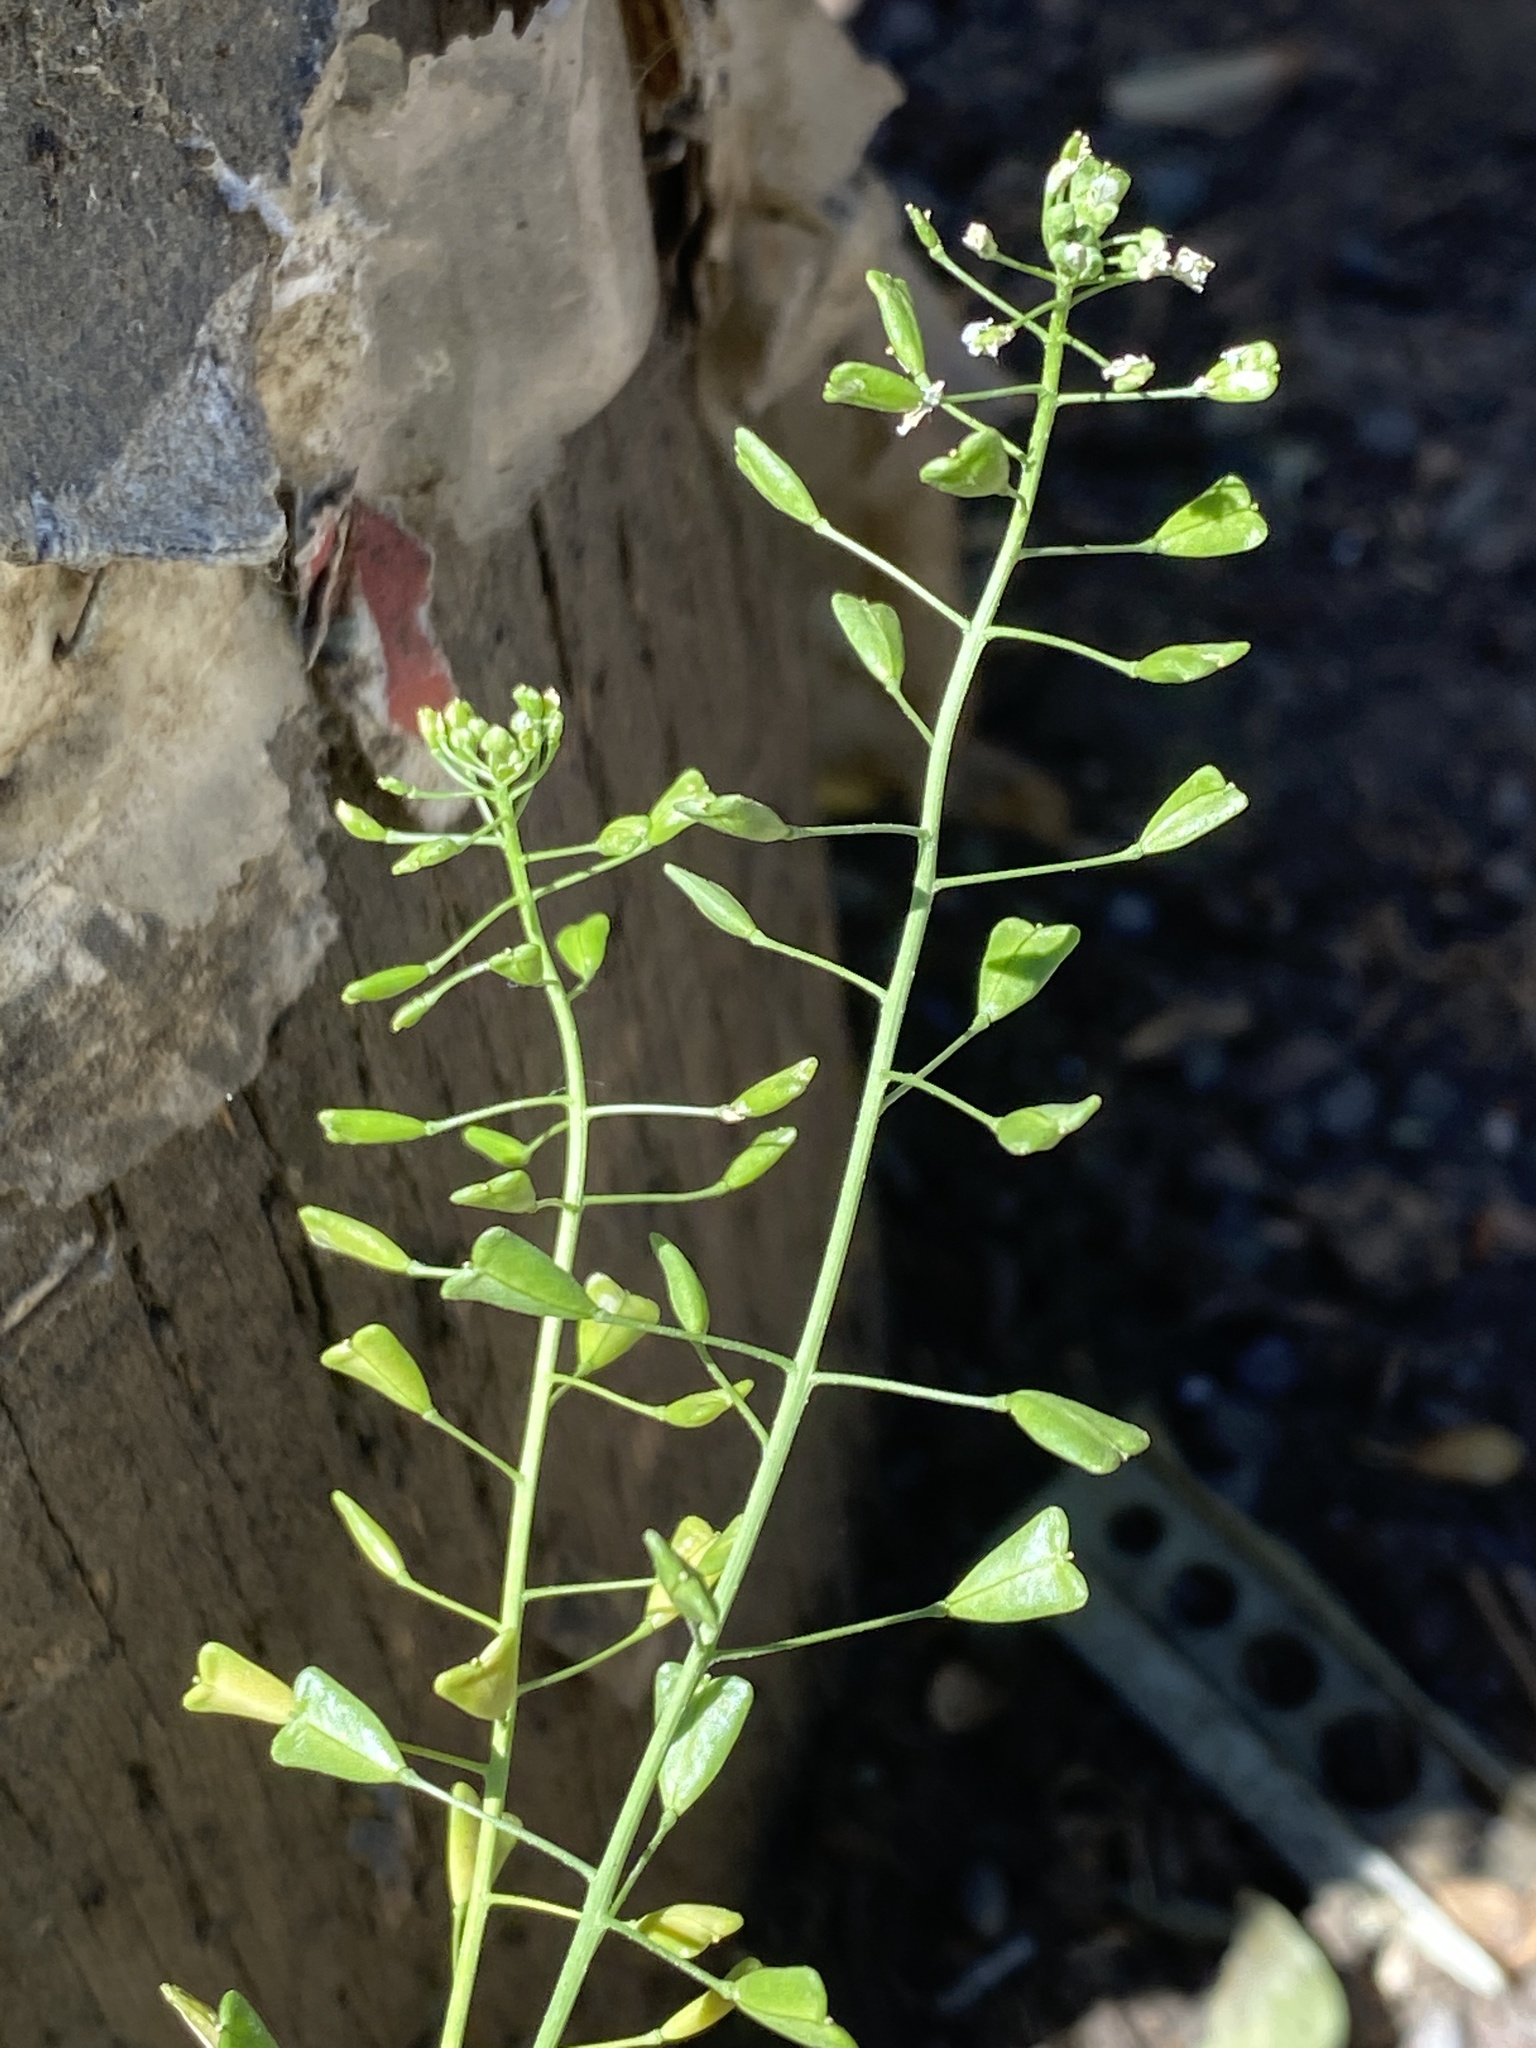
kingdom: Plantae
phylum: Tracheophyta
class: Magnoliopsida
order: Brassicales
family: Brassicaceae
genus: Capsella
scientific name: Capsella bursa-pastoris
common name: Shepherd's purse
